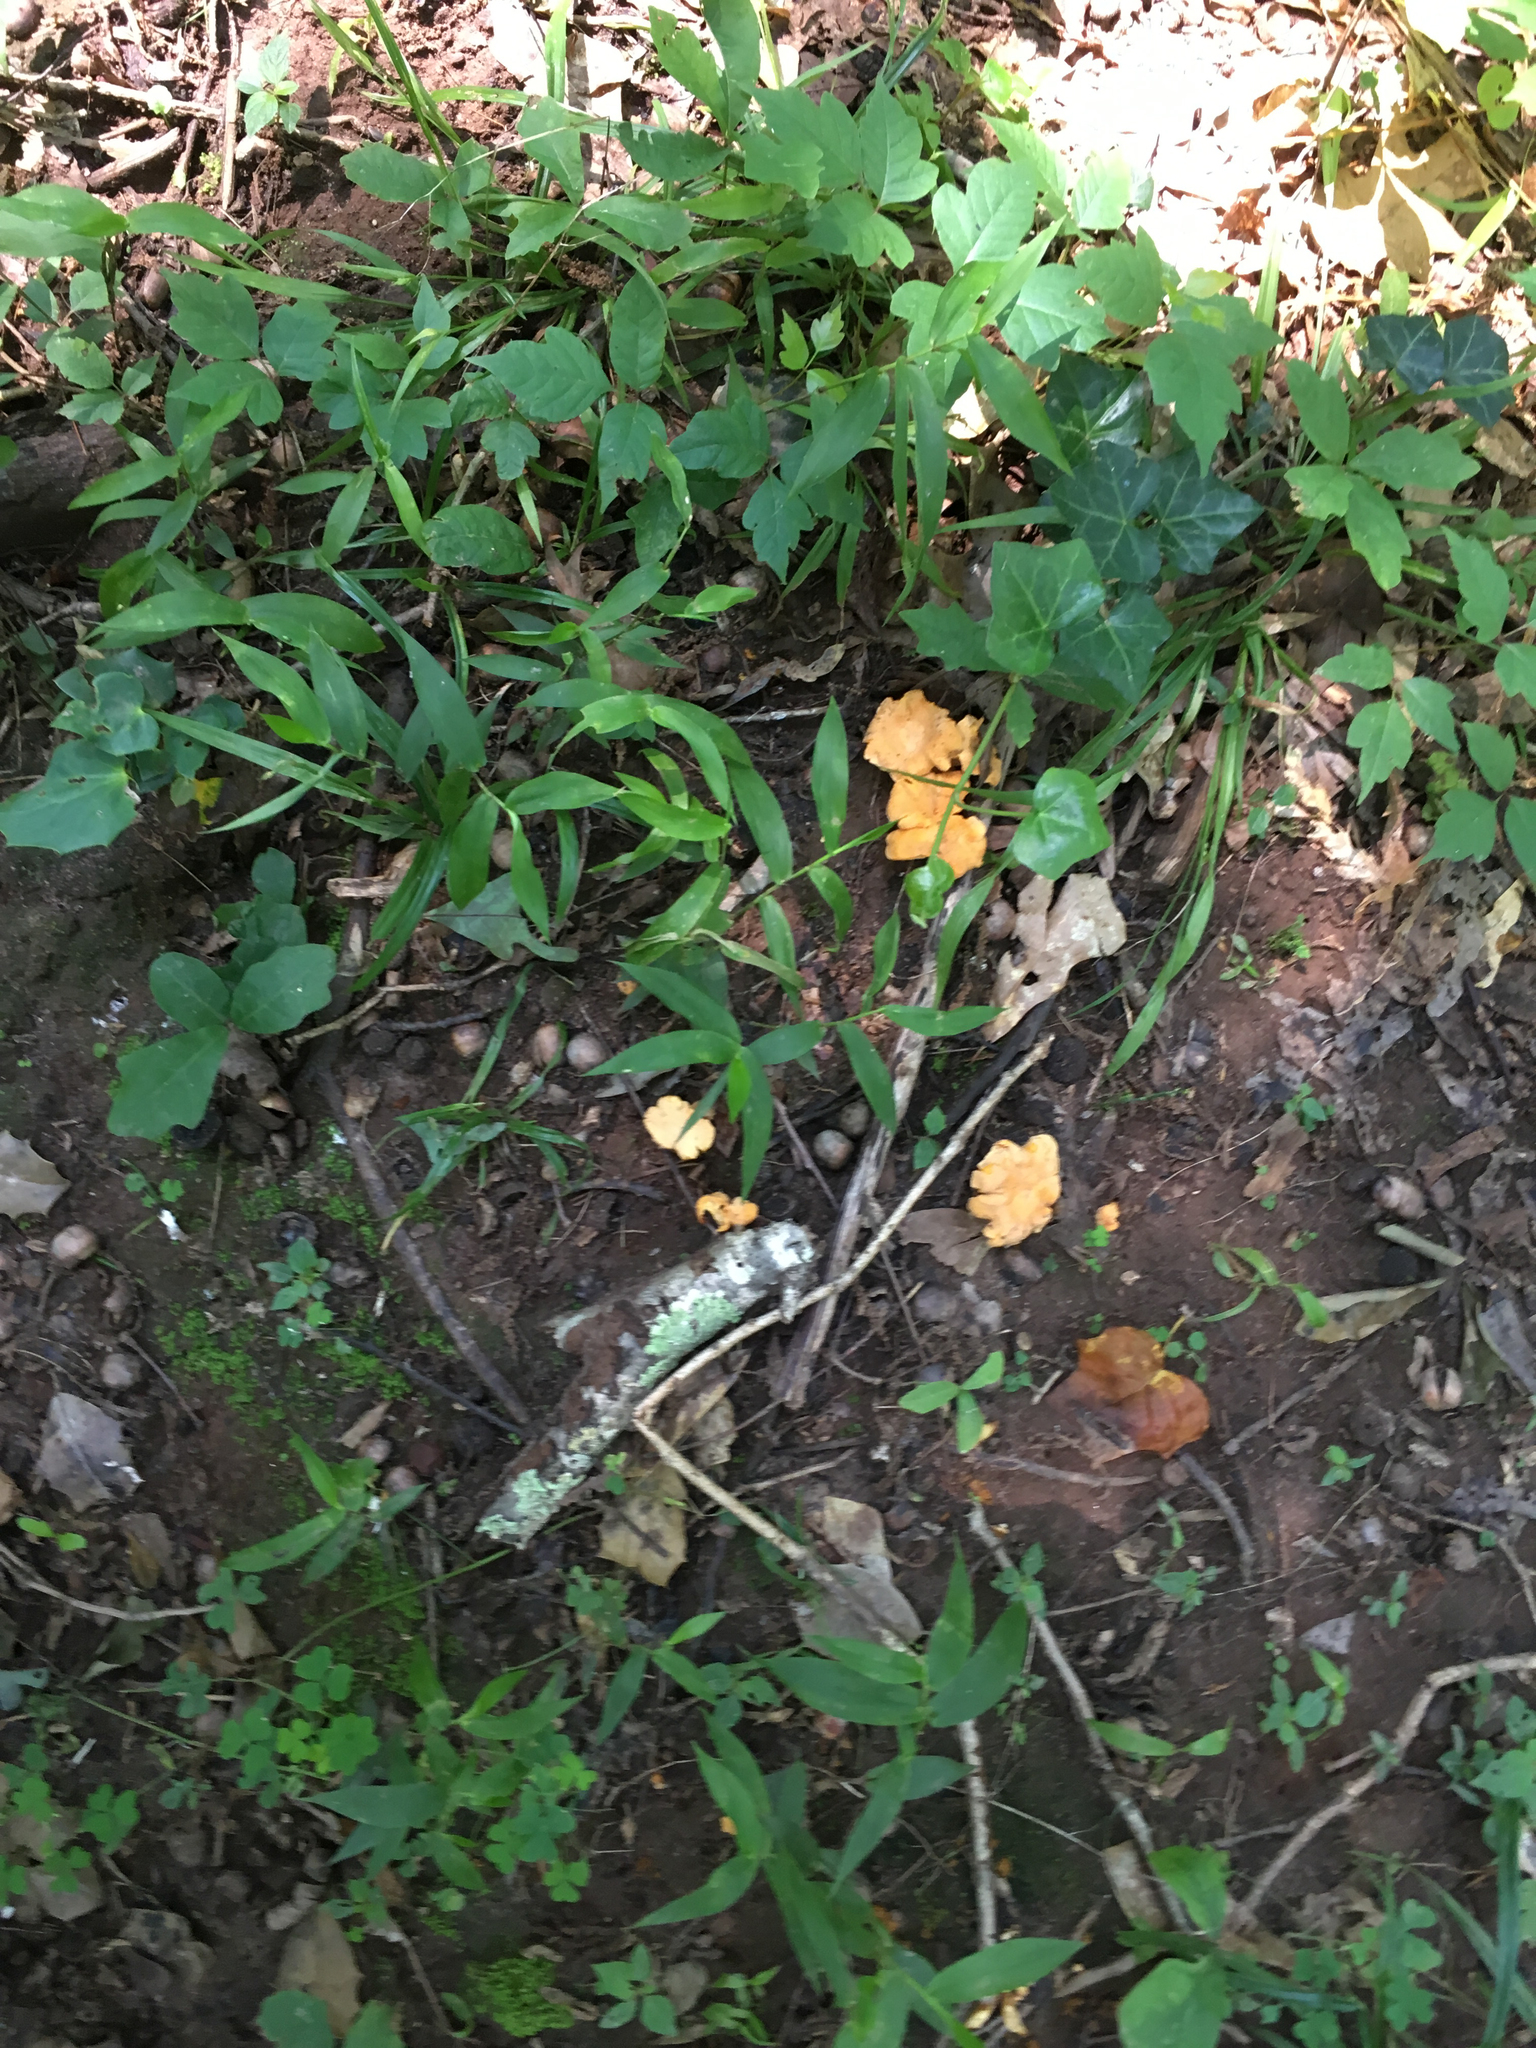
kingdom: Fungi
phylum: Basidiomycota
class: Agaricomycetes
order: Cantharellales
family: Hydnaceae
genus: Cantharellus
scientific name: Cantharellus lateritius
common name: Smooth chanterelle
